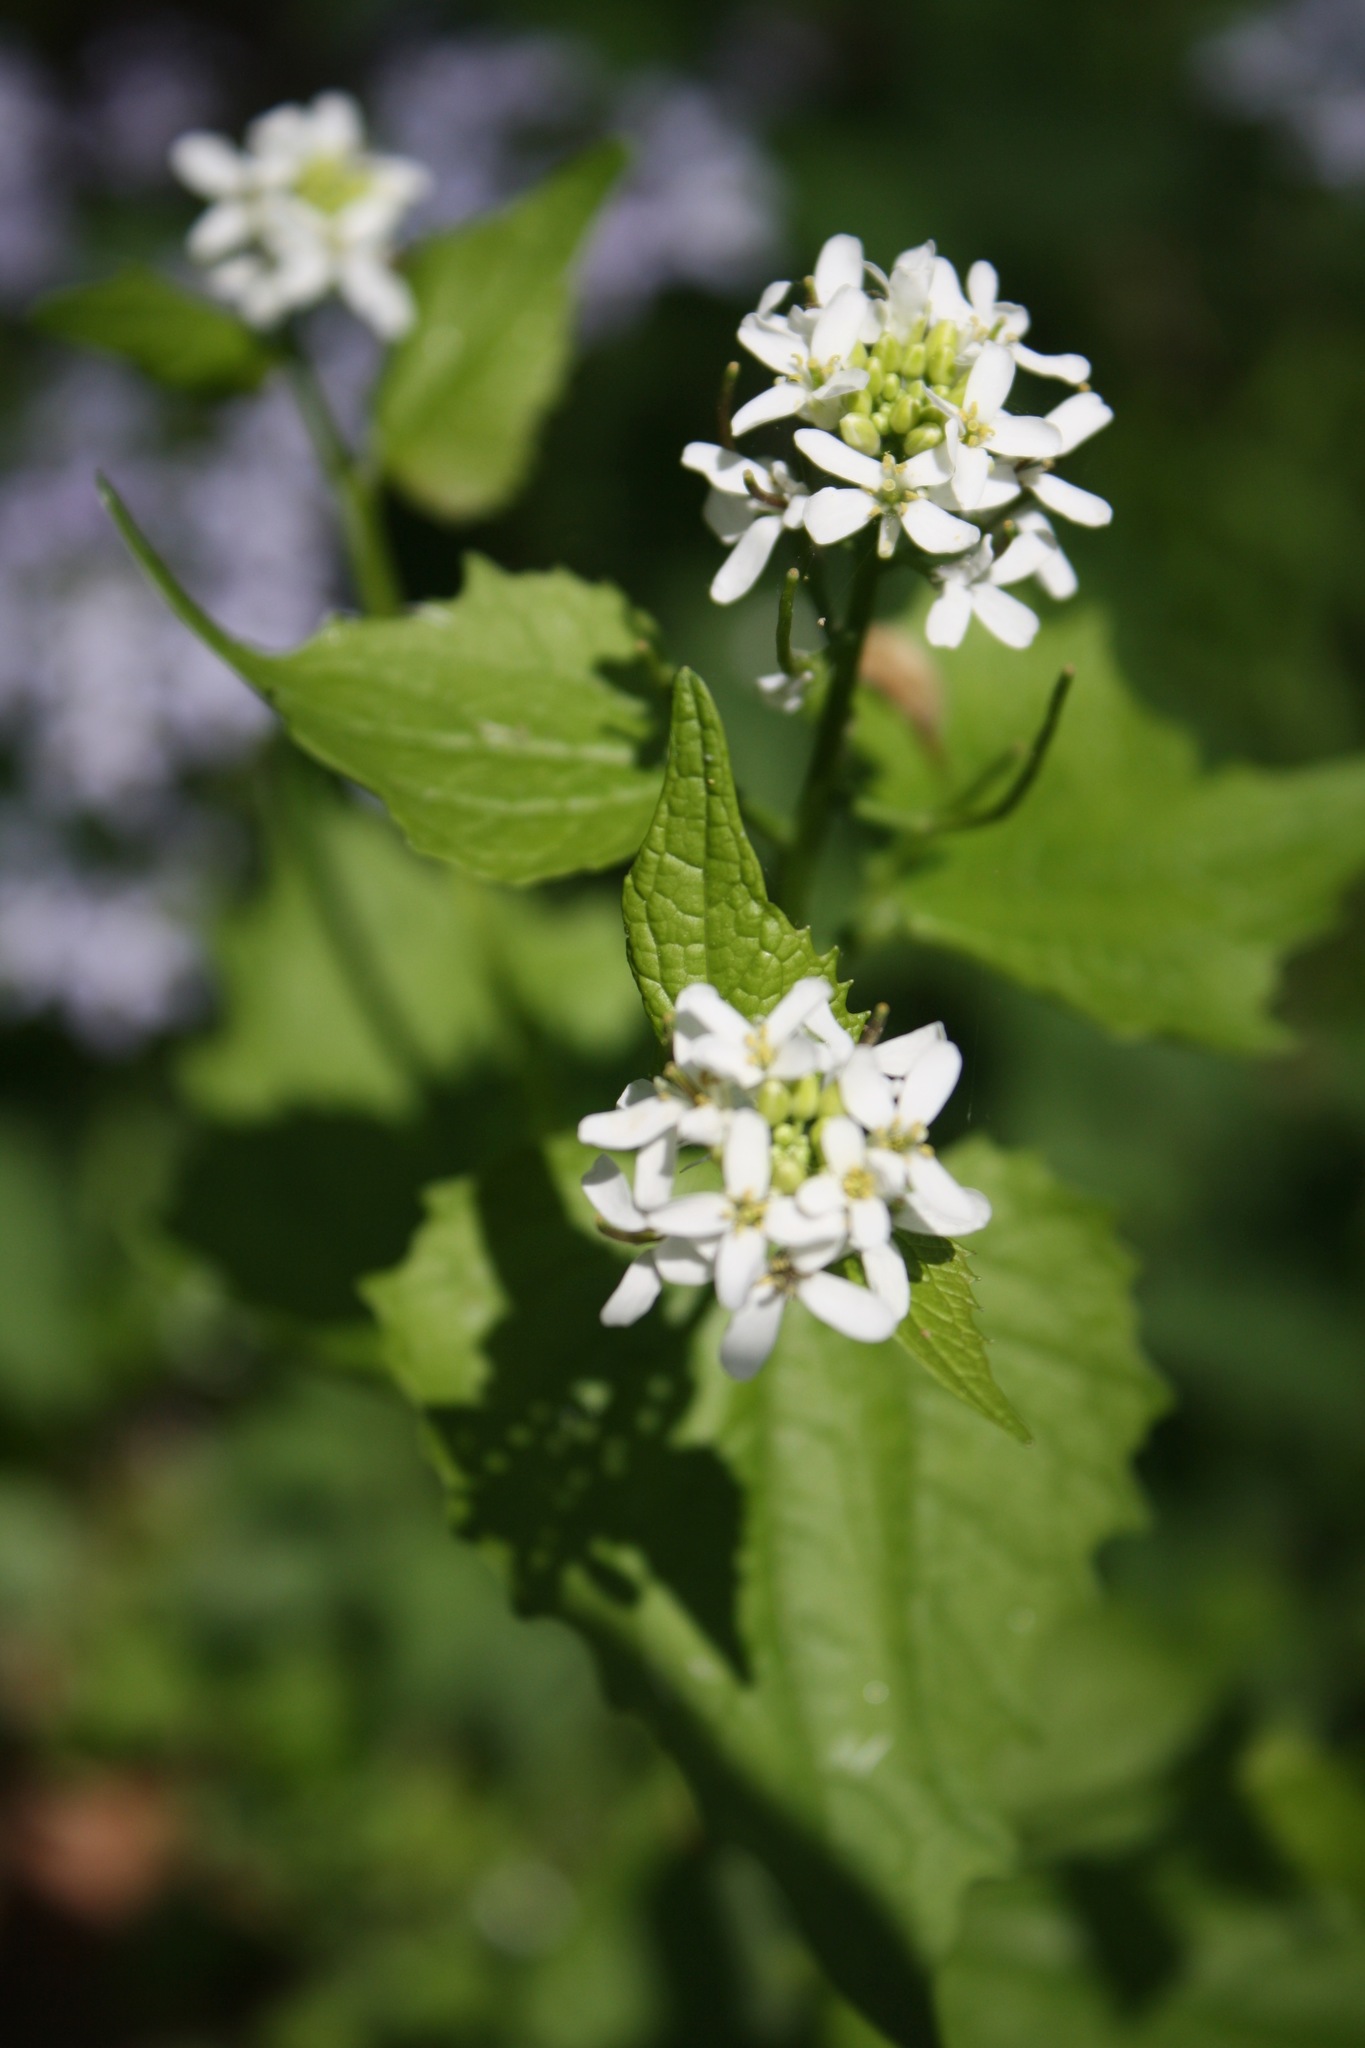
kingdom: Plantae
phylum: Tracheophyta
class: Magnoliopsida
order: Brassicales
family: Brassicaceae
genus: Alliaria
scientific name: Alliaria petiolata
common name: Garlic mustard
